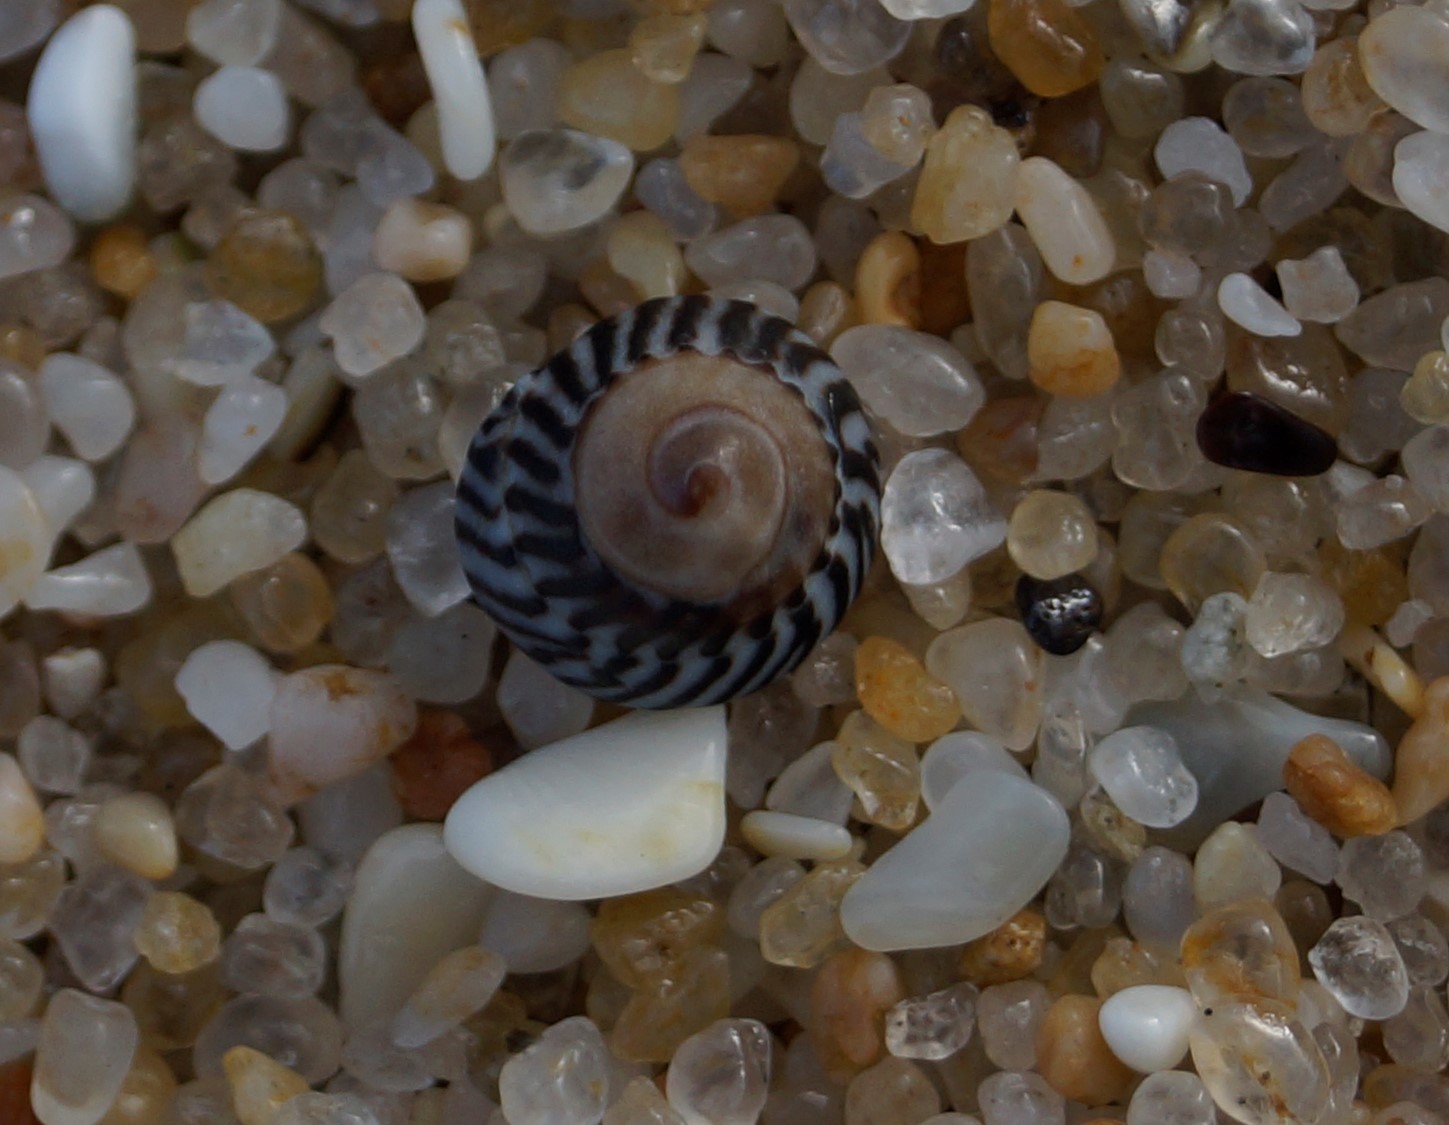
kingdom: Animalia
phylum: Mollusca
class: Gastropoda
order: Littorinimorpha
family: Littorinidae
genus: Bembicium
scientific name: Bembicium nanum
